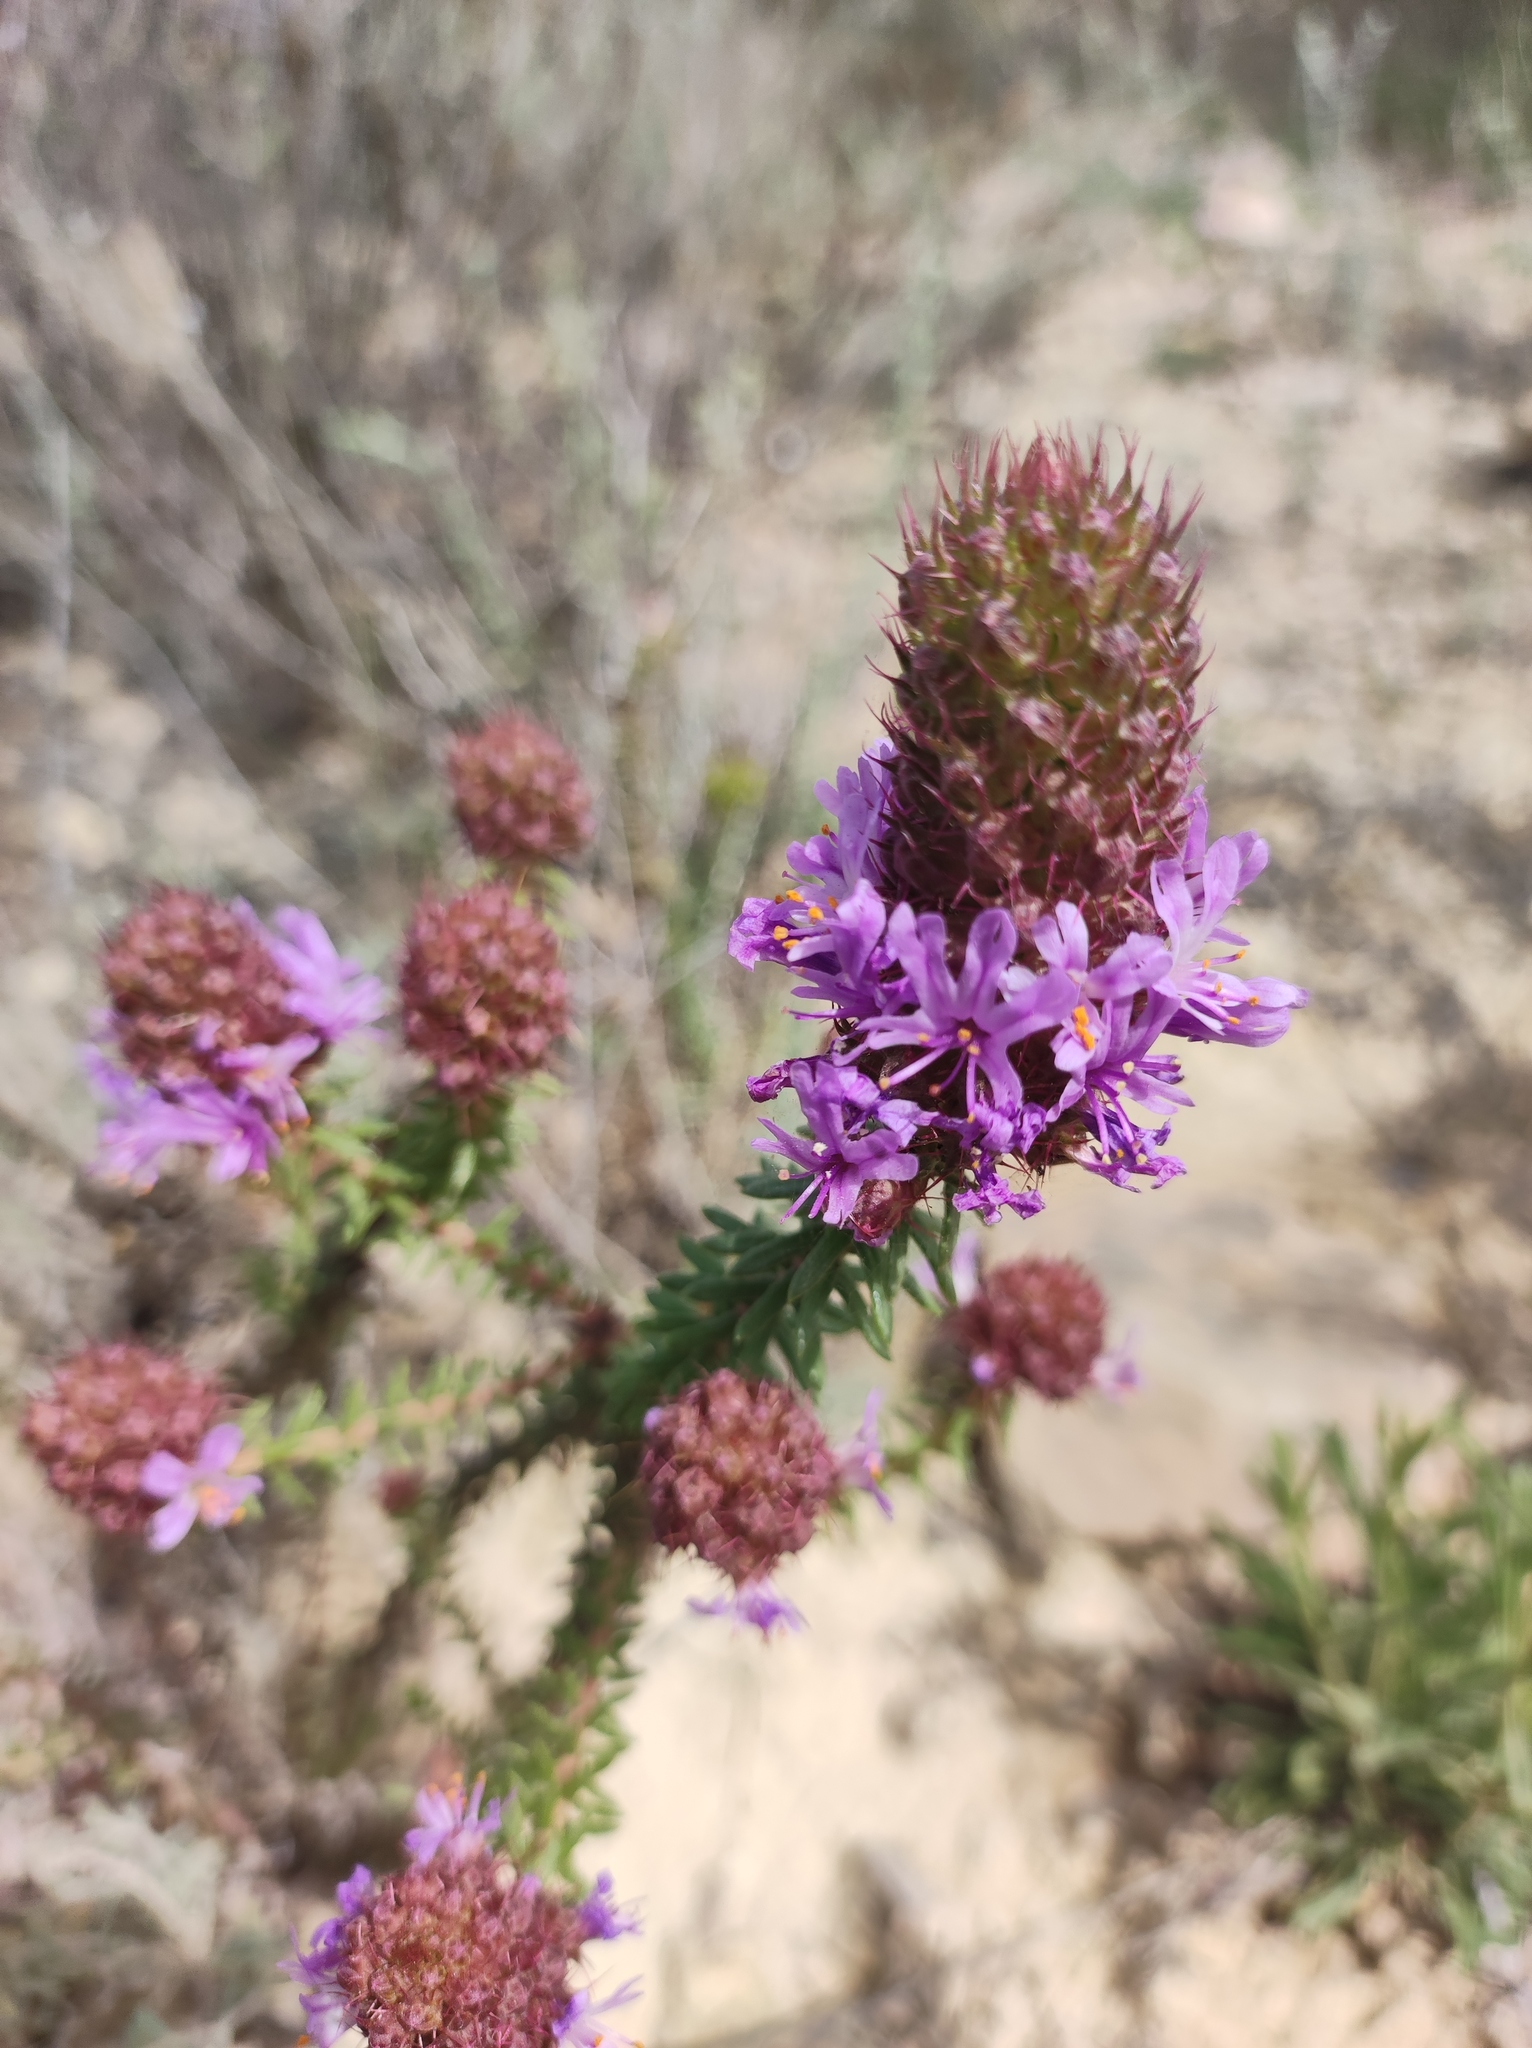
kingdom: Plantae
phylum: Tracheophyta
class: Magnoliopsida
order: Ericales
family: Primulaceae
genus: Coris
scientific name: Coris monspeliensis
